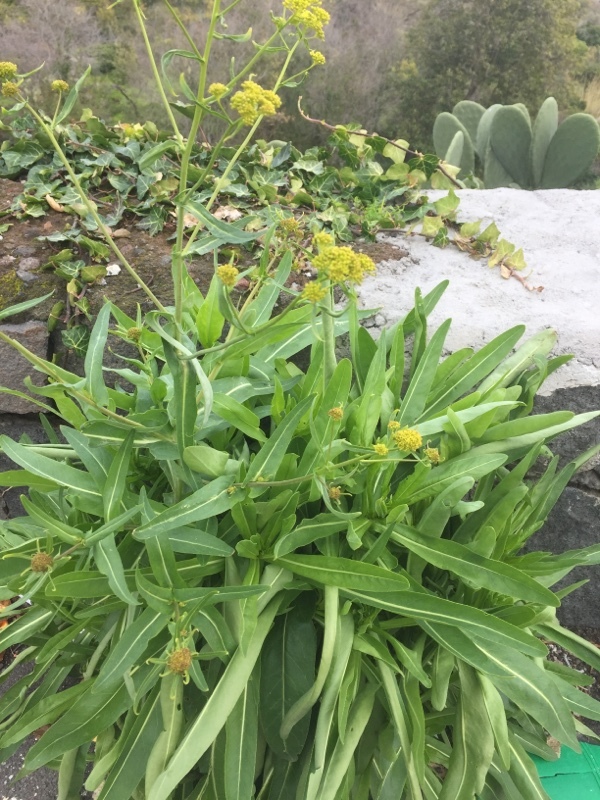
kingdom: Plantae
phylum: Tracheophyta
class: Magnoliopsida
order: Brassicales
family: Brassicaceae
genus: Isatis
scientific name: Isatis tinctoria
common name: Woad
